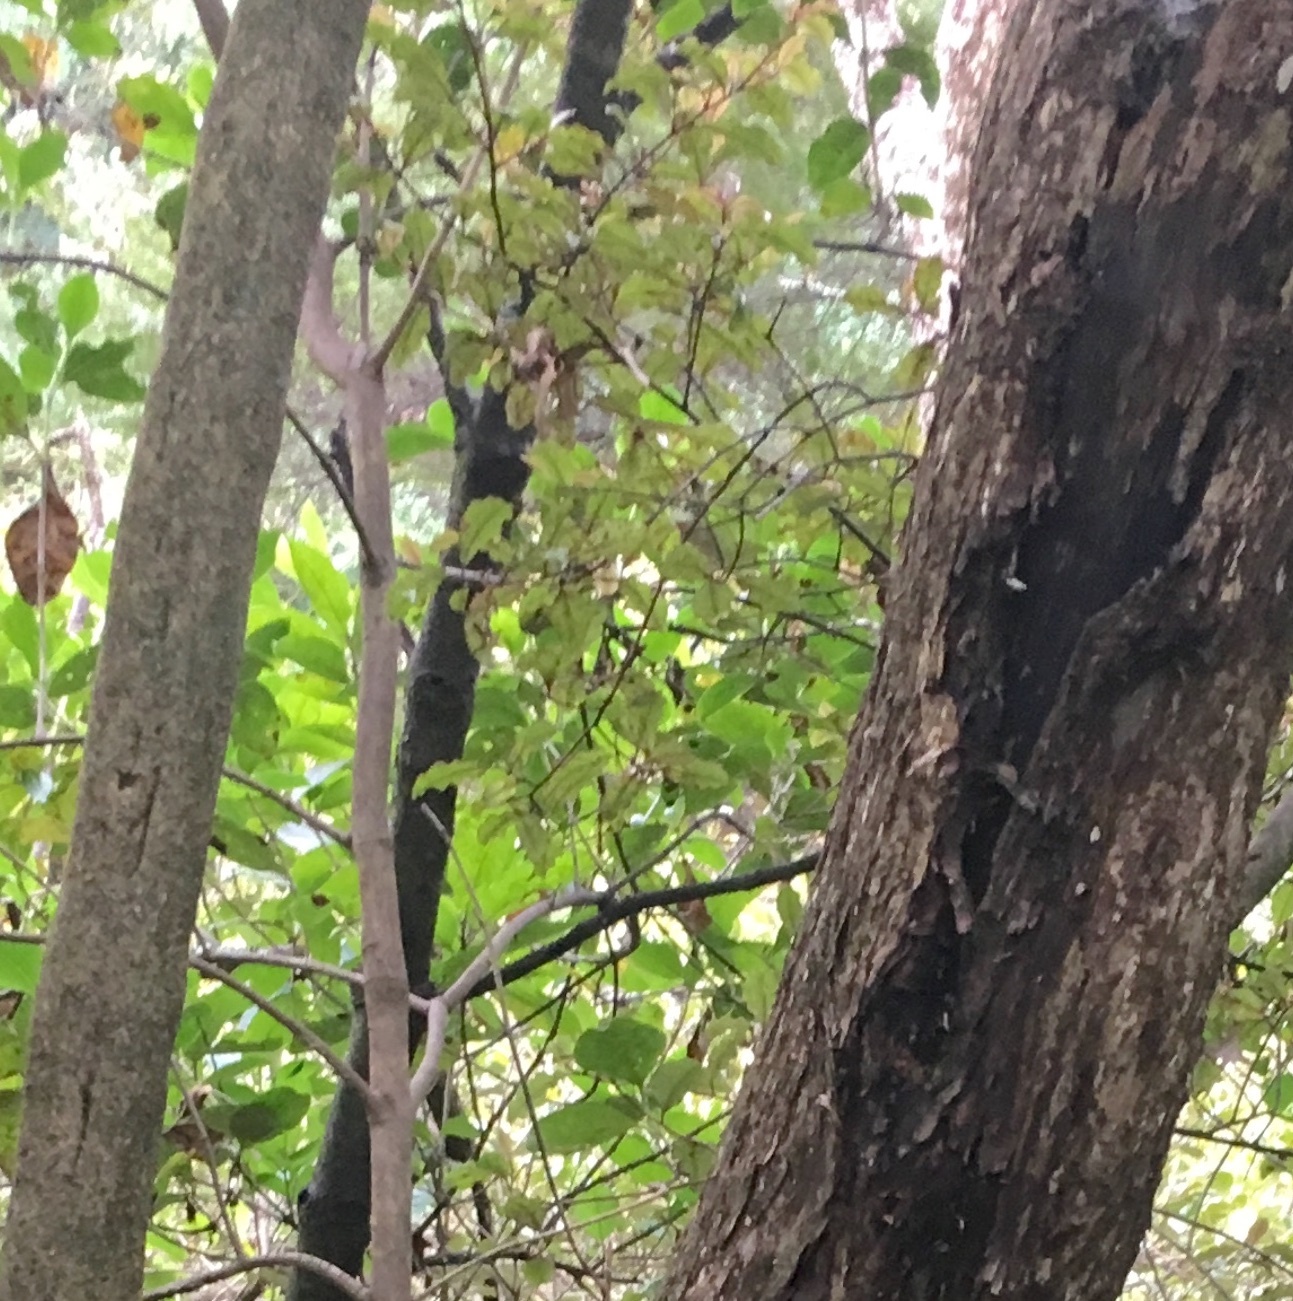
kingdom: Plantae
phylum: Tracheophyta
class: Magnoliopsida
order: Ericales
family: Primulaceae
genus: Myrsine
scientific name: Myrsine australis
